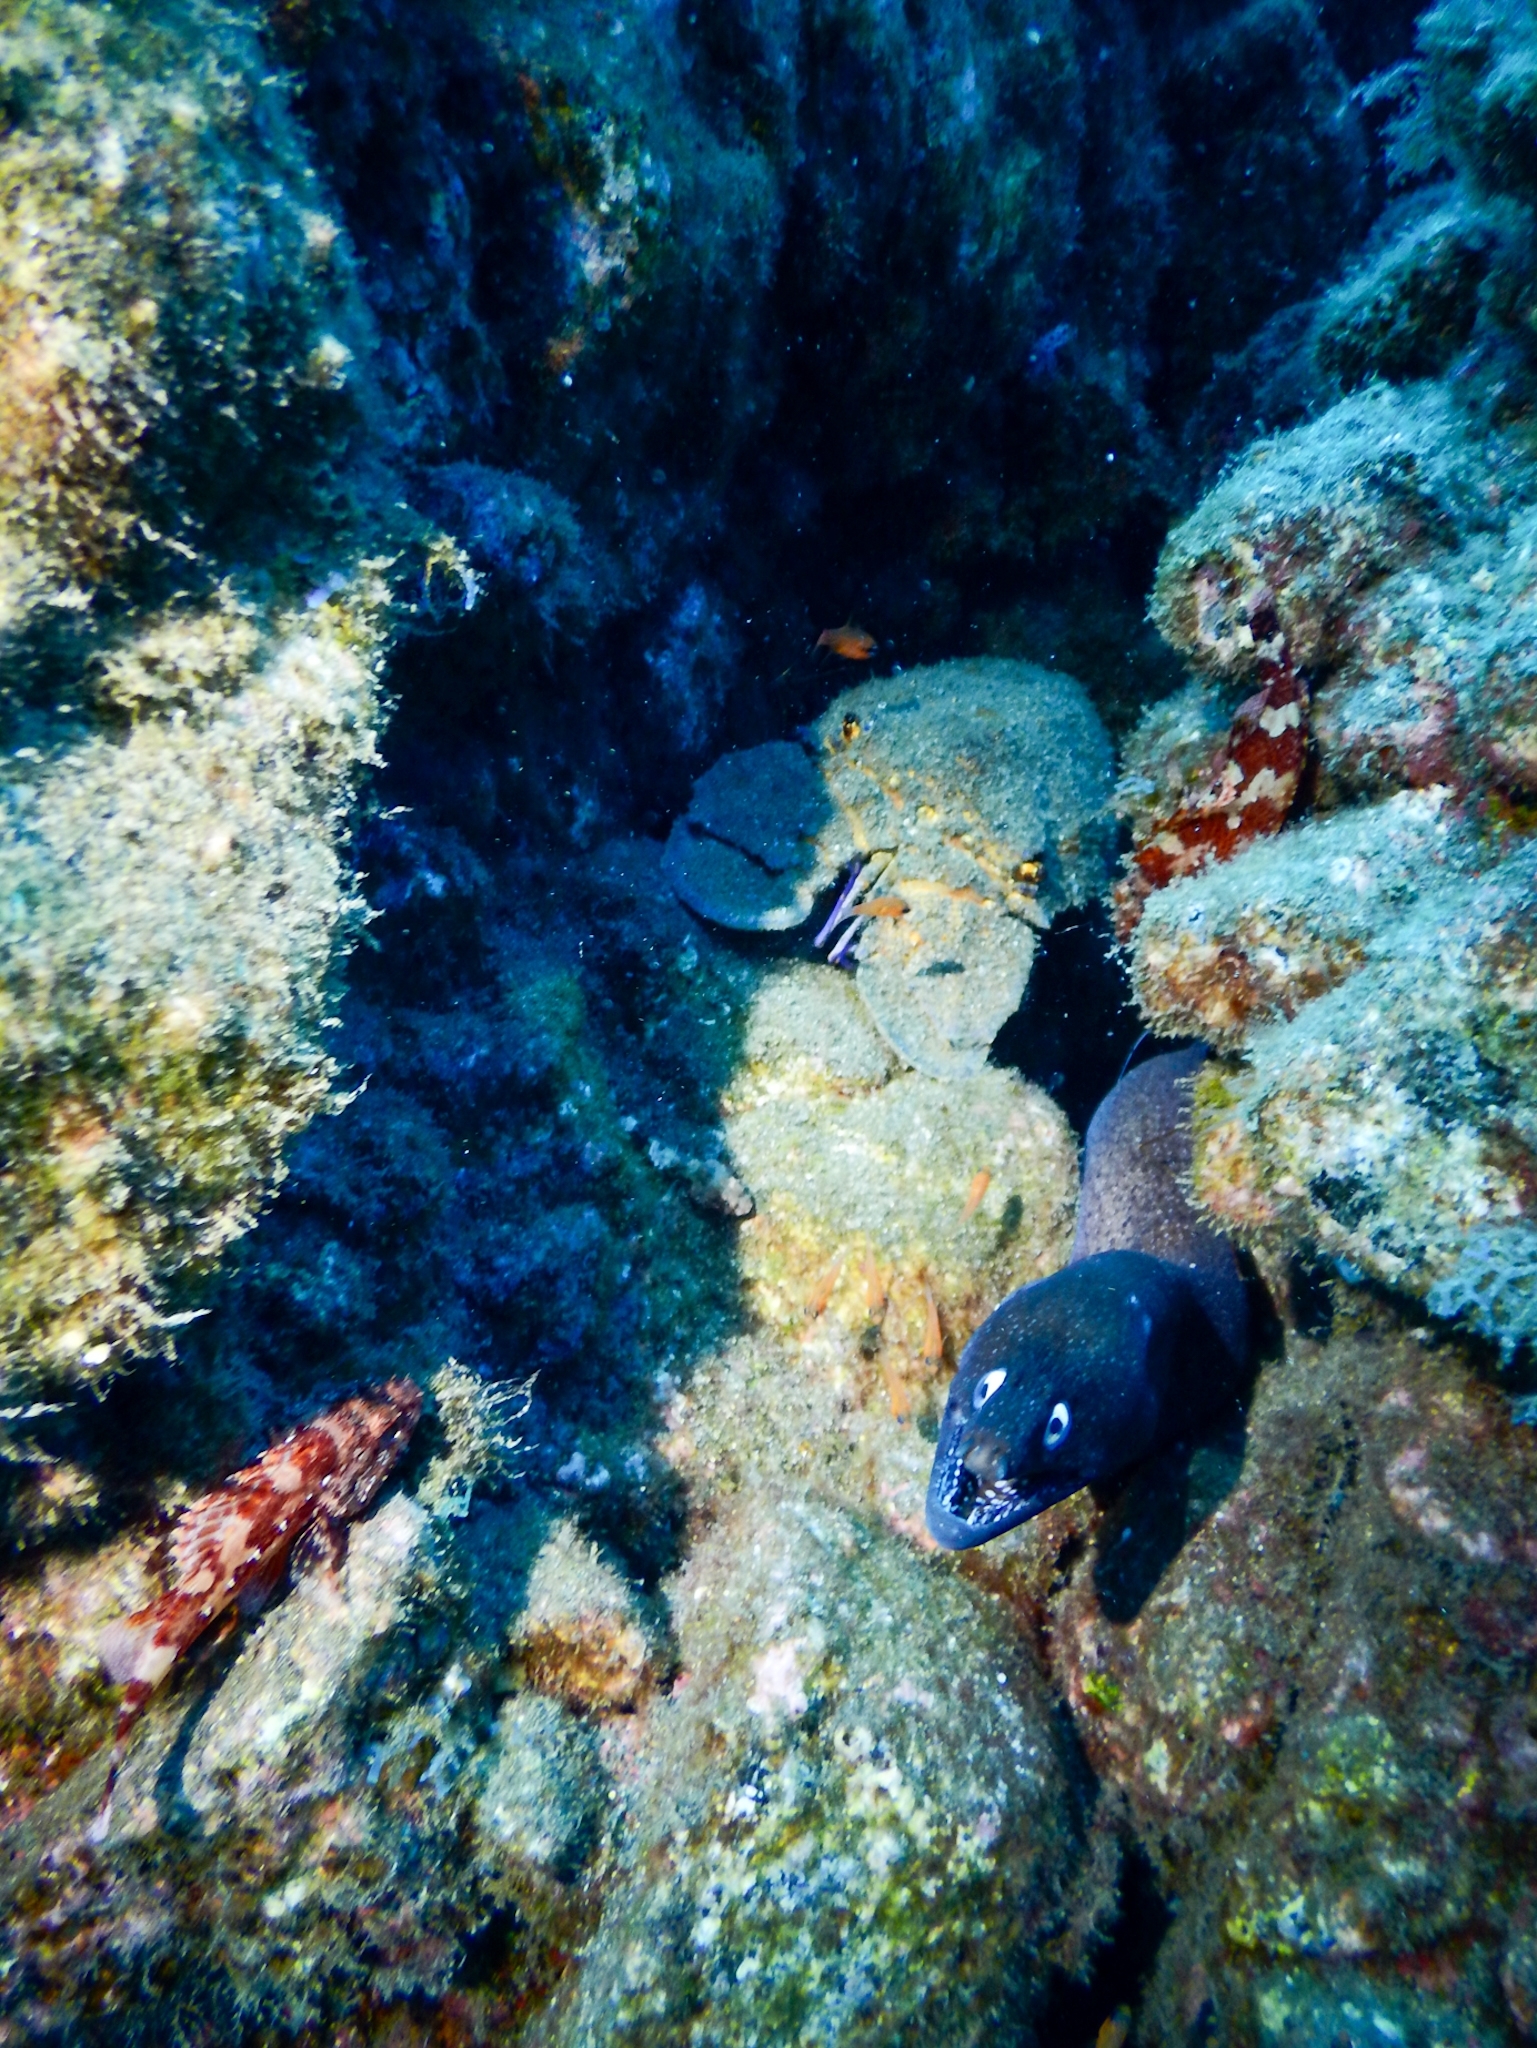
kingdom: Animalia
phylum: Arthropoda
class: Malacostraca
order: Decapoda
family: Scyllaridae
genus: Scyllarides
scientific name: Scyllarides latus
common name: Mediterranean slipper lobster
